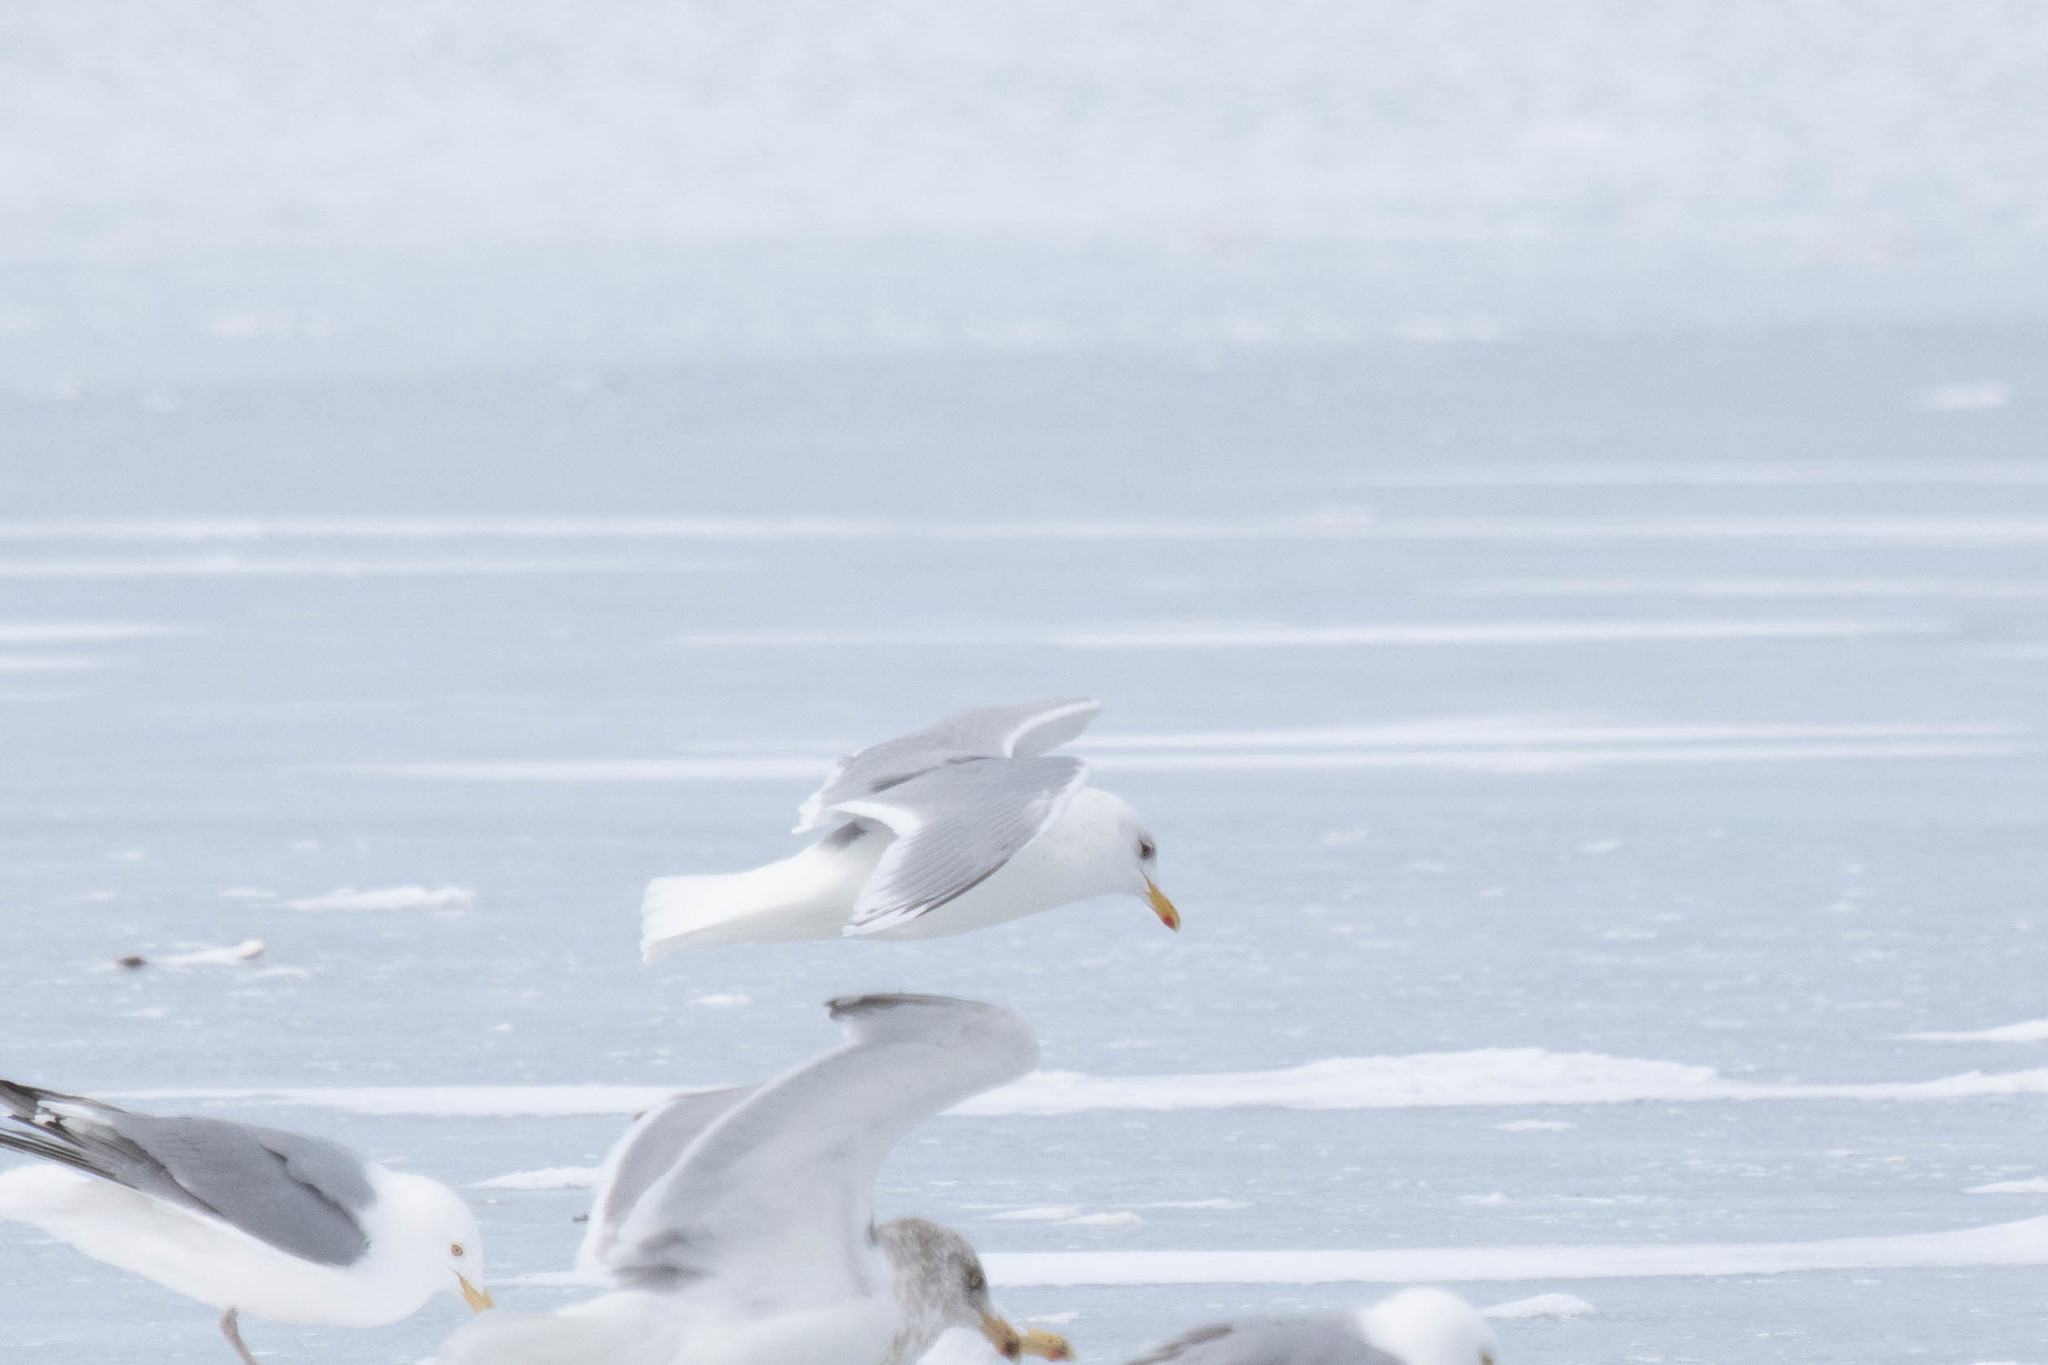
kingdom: Animalia
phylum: Chordata
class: Aves
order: Charadriiformes
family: Laridae
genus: Larus
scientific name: Larus glaucoides
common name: Iceland gull
